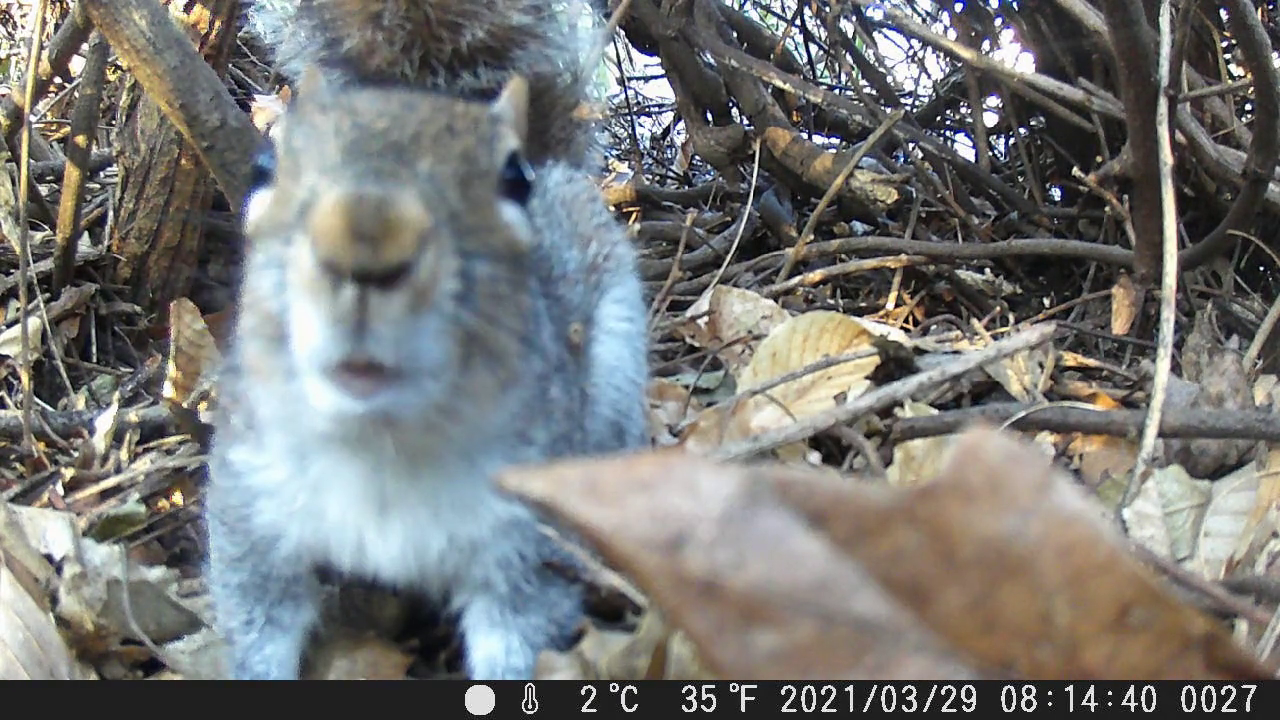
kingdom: Animalia
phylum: Chordata
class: Mammalia
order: Rodentia
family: Sciuridae
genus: Sciurus
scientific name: Sciurus carolinensis
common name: Eastern gray squirrel
